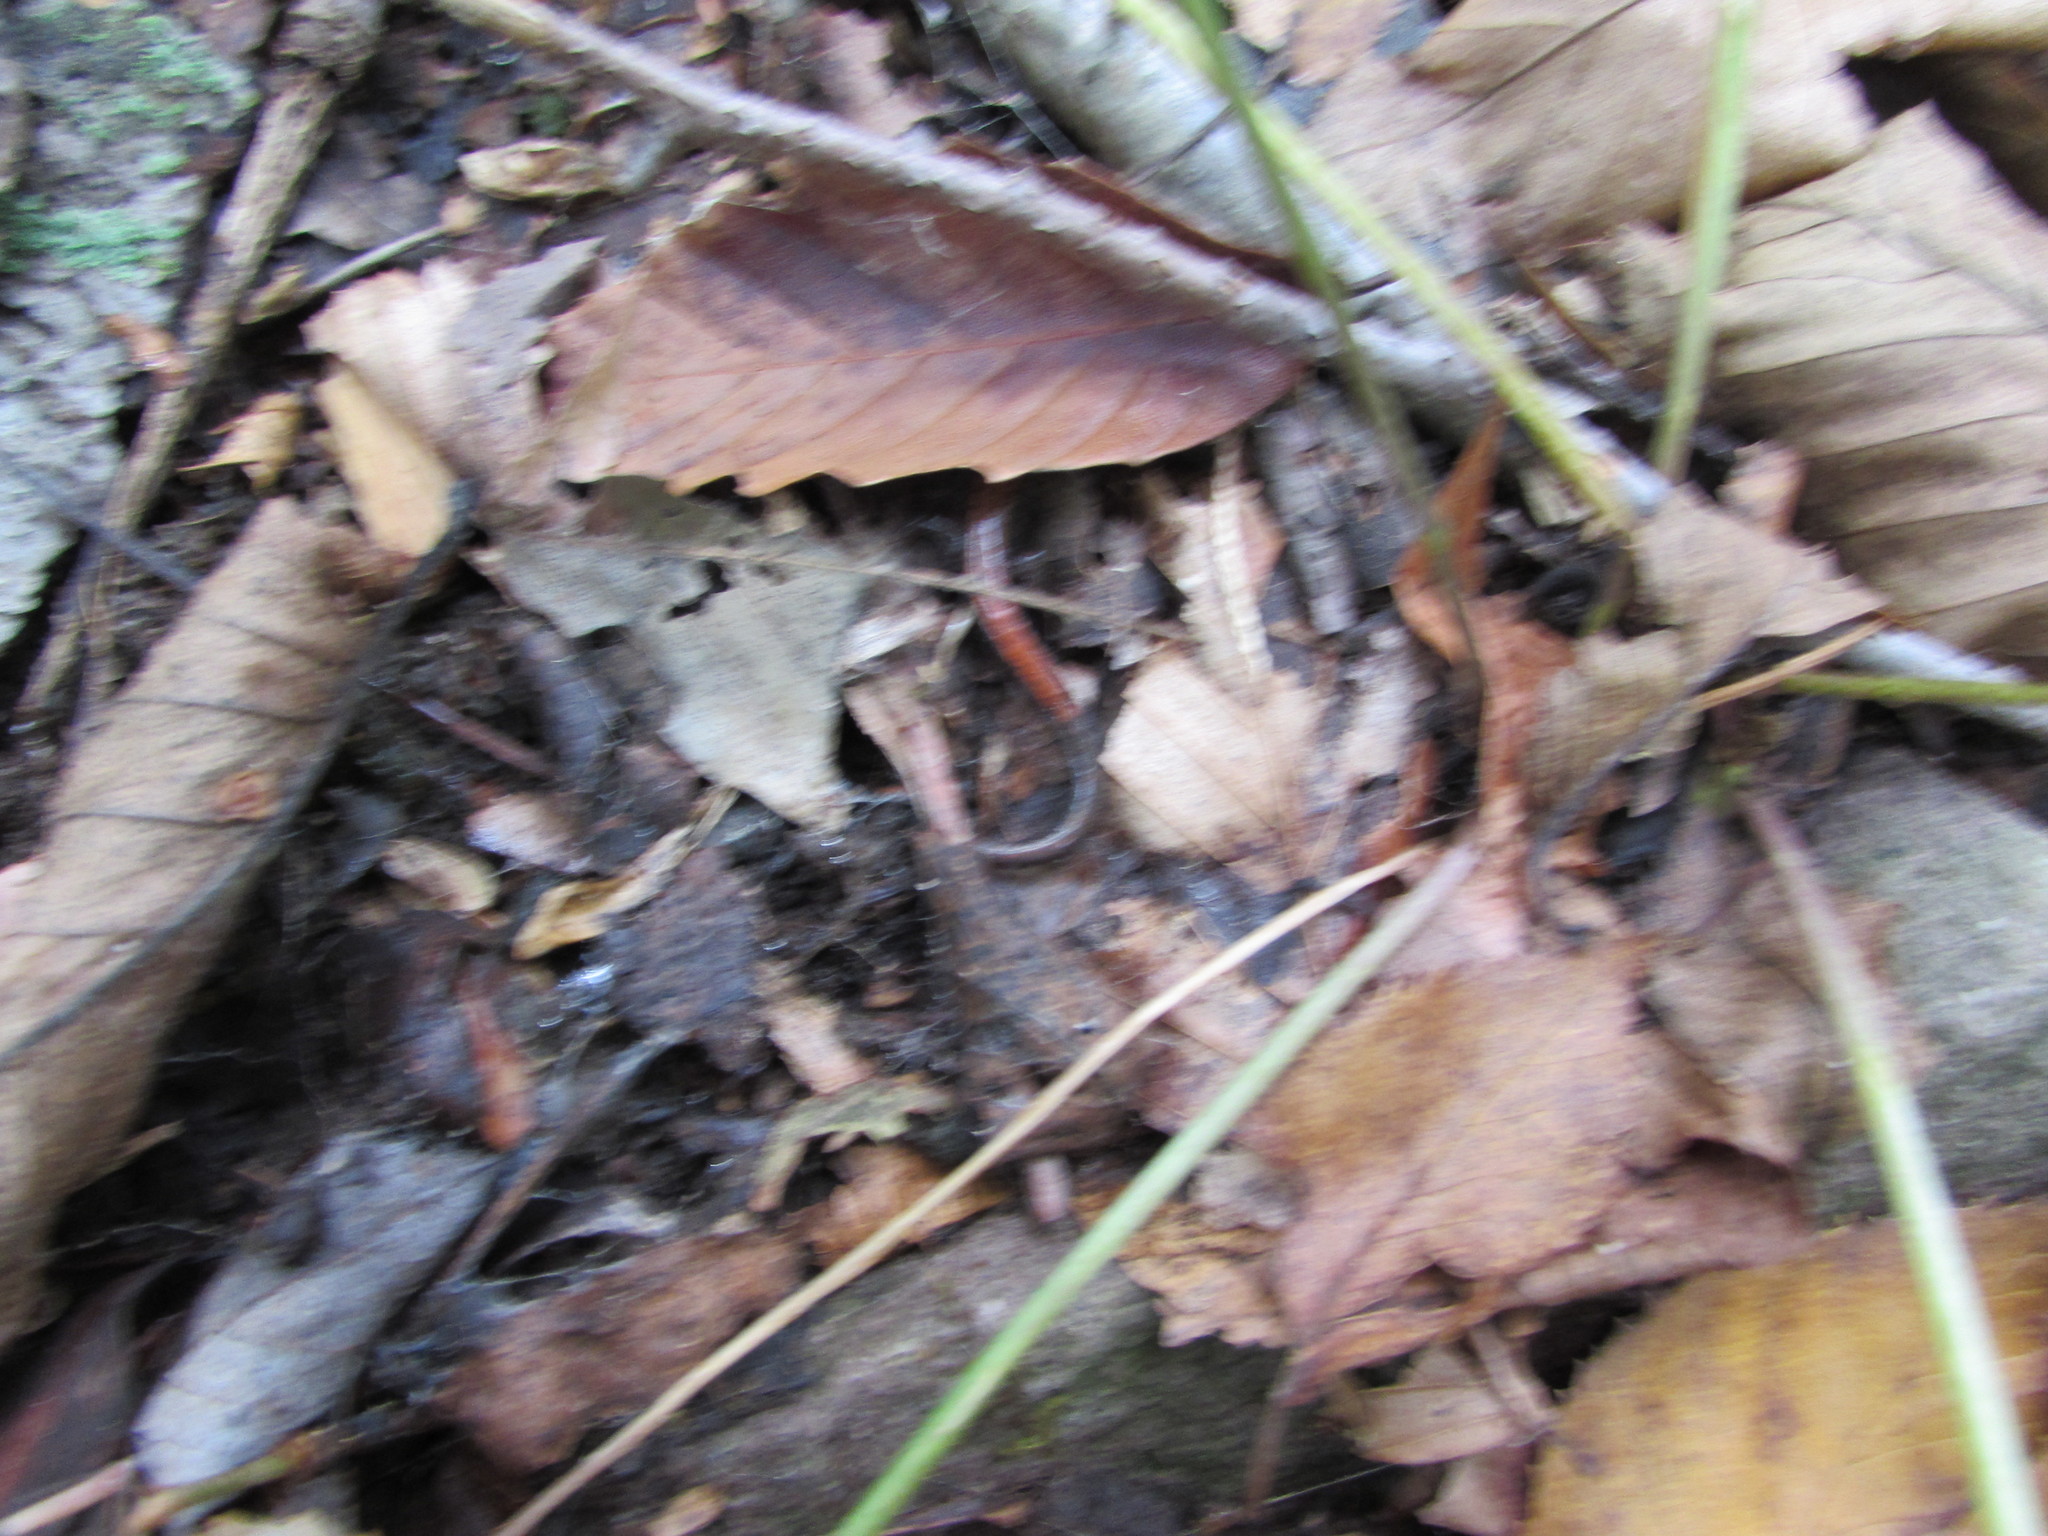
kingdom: Animalia
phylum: Chordata
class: Amphibia
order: Caudata
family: Plethodontidae
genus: Plethodon
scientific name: Plethodon cinereus
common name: Redback salamander
